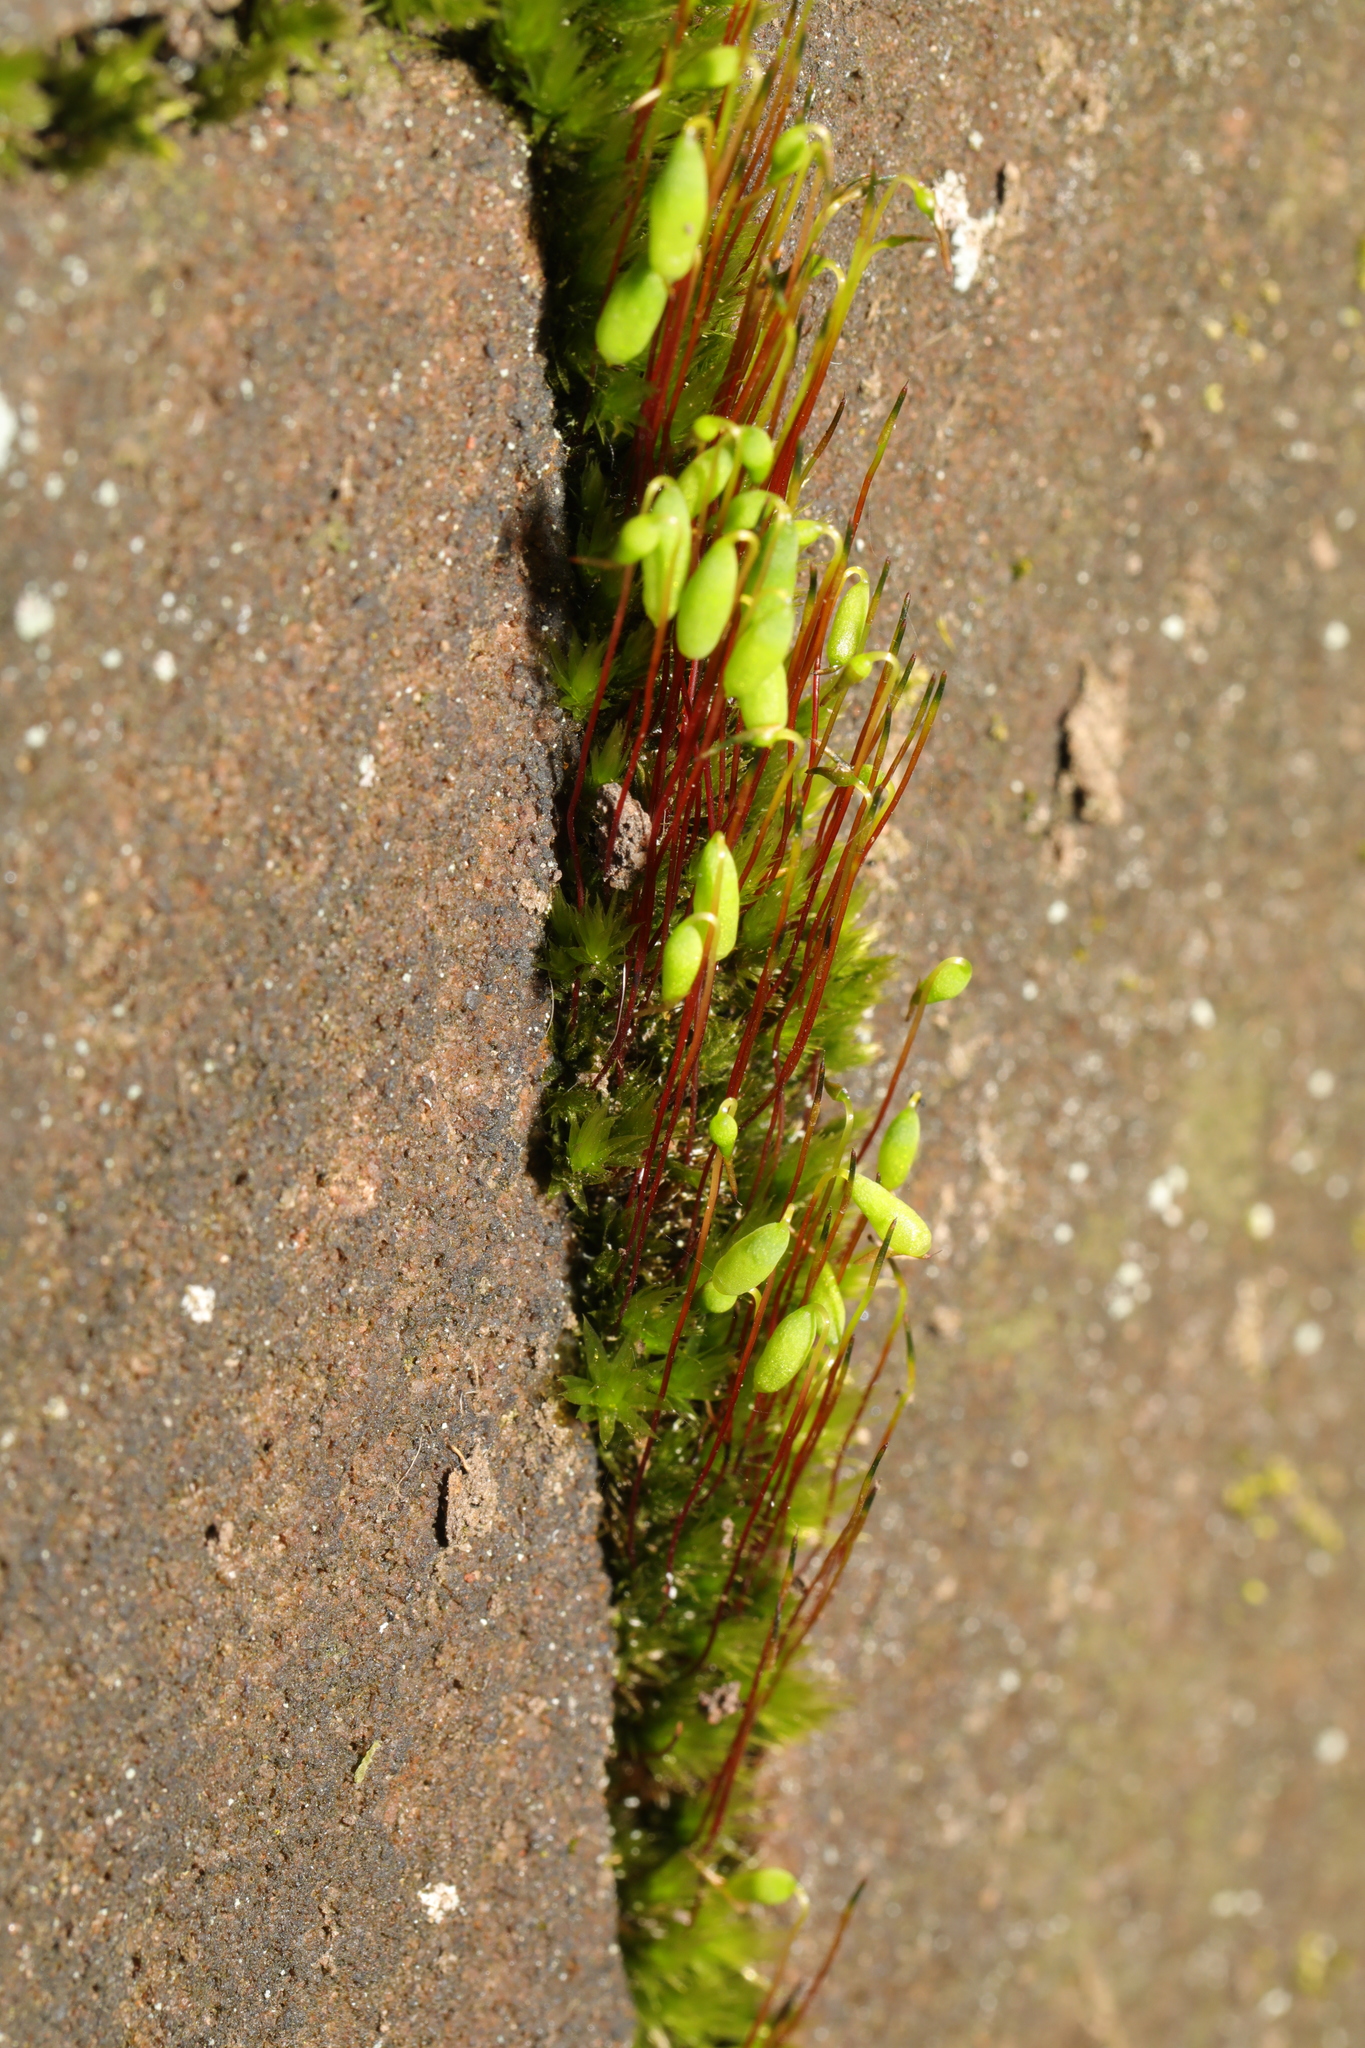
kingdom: Plantae
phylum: Bryophyta
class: Bryopsida
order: Bryales
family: Bryaceae
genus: Rosulabryum
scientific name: Rosulabryum capillare
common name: Capillary thread-moss
